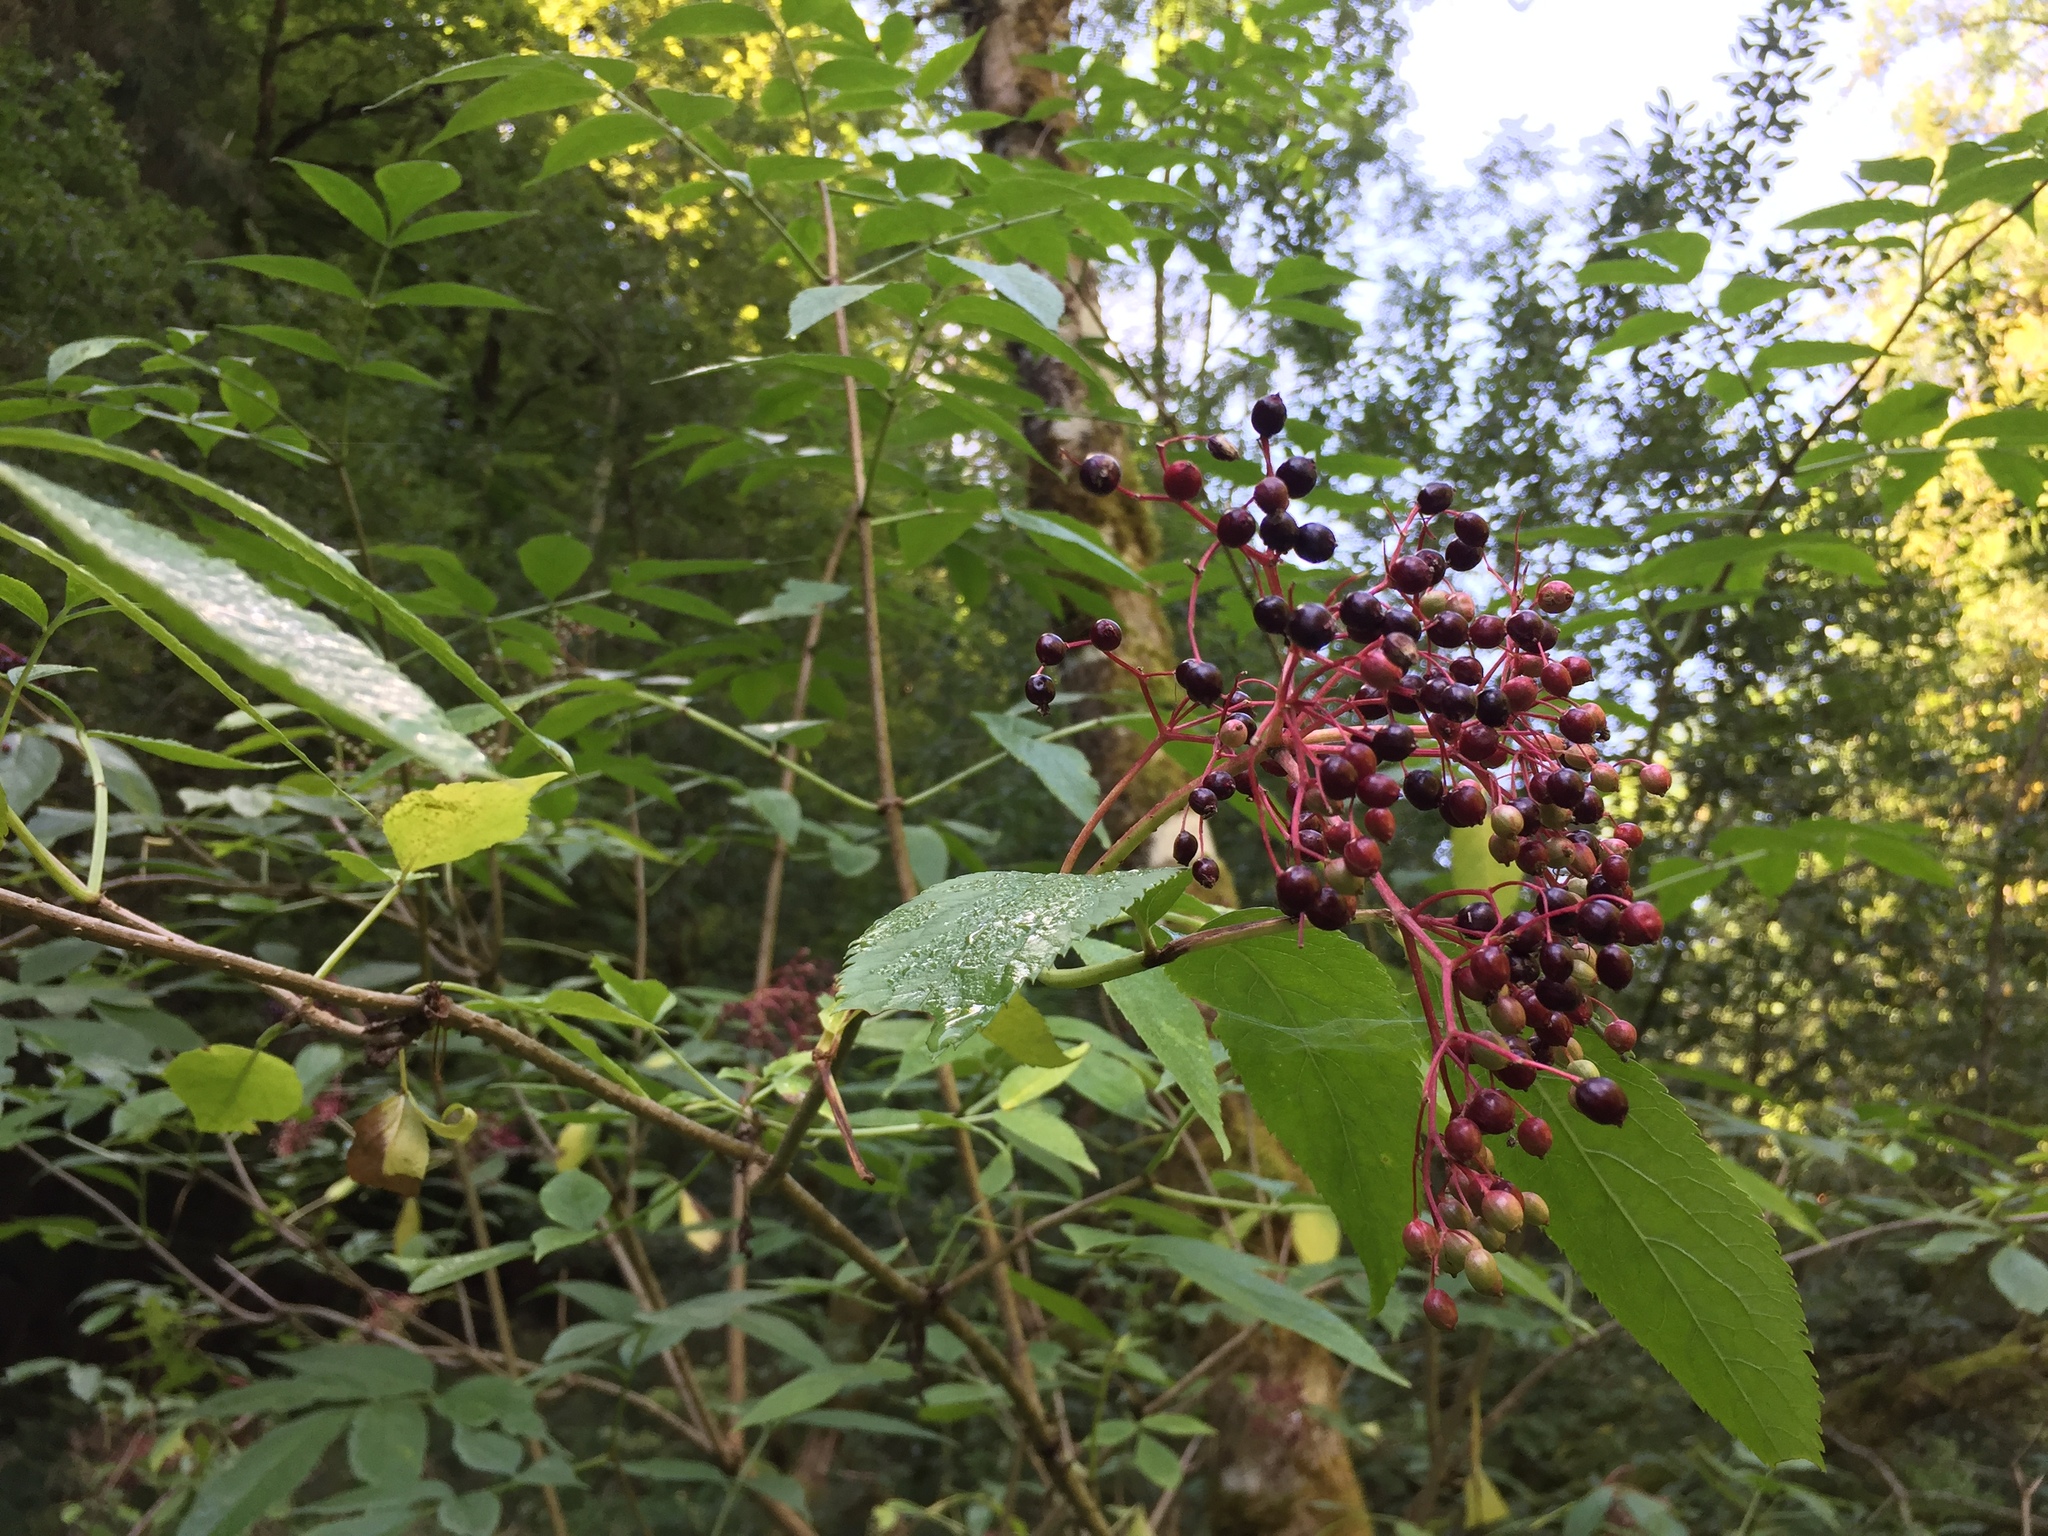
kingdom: Plantae
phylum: Tracheophyta
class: Magnoliopsida
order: Dipsacales
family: Viburnaceae
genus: Sambucus
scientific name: Sambucus nigra
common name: Elder
